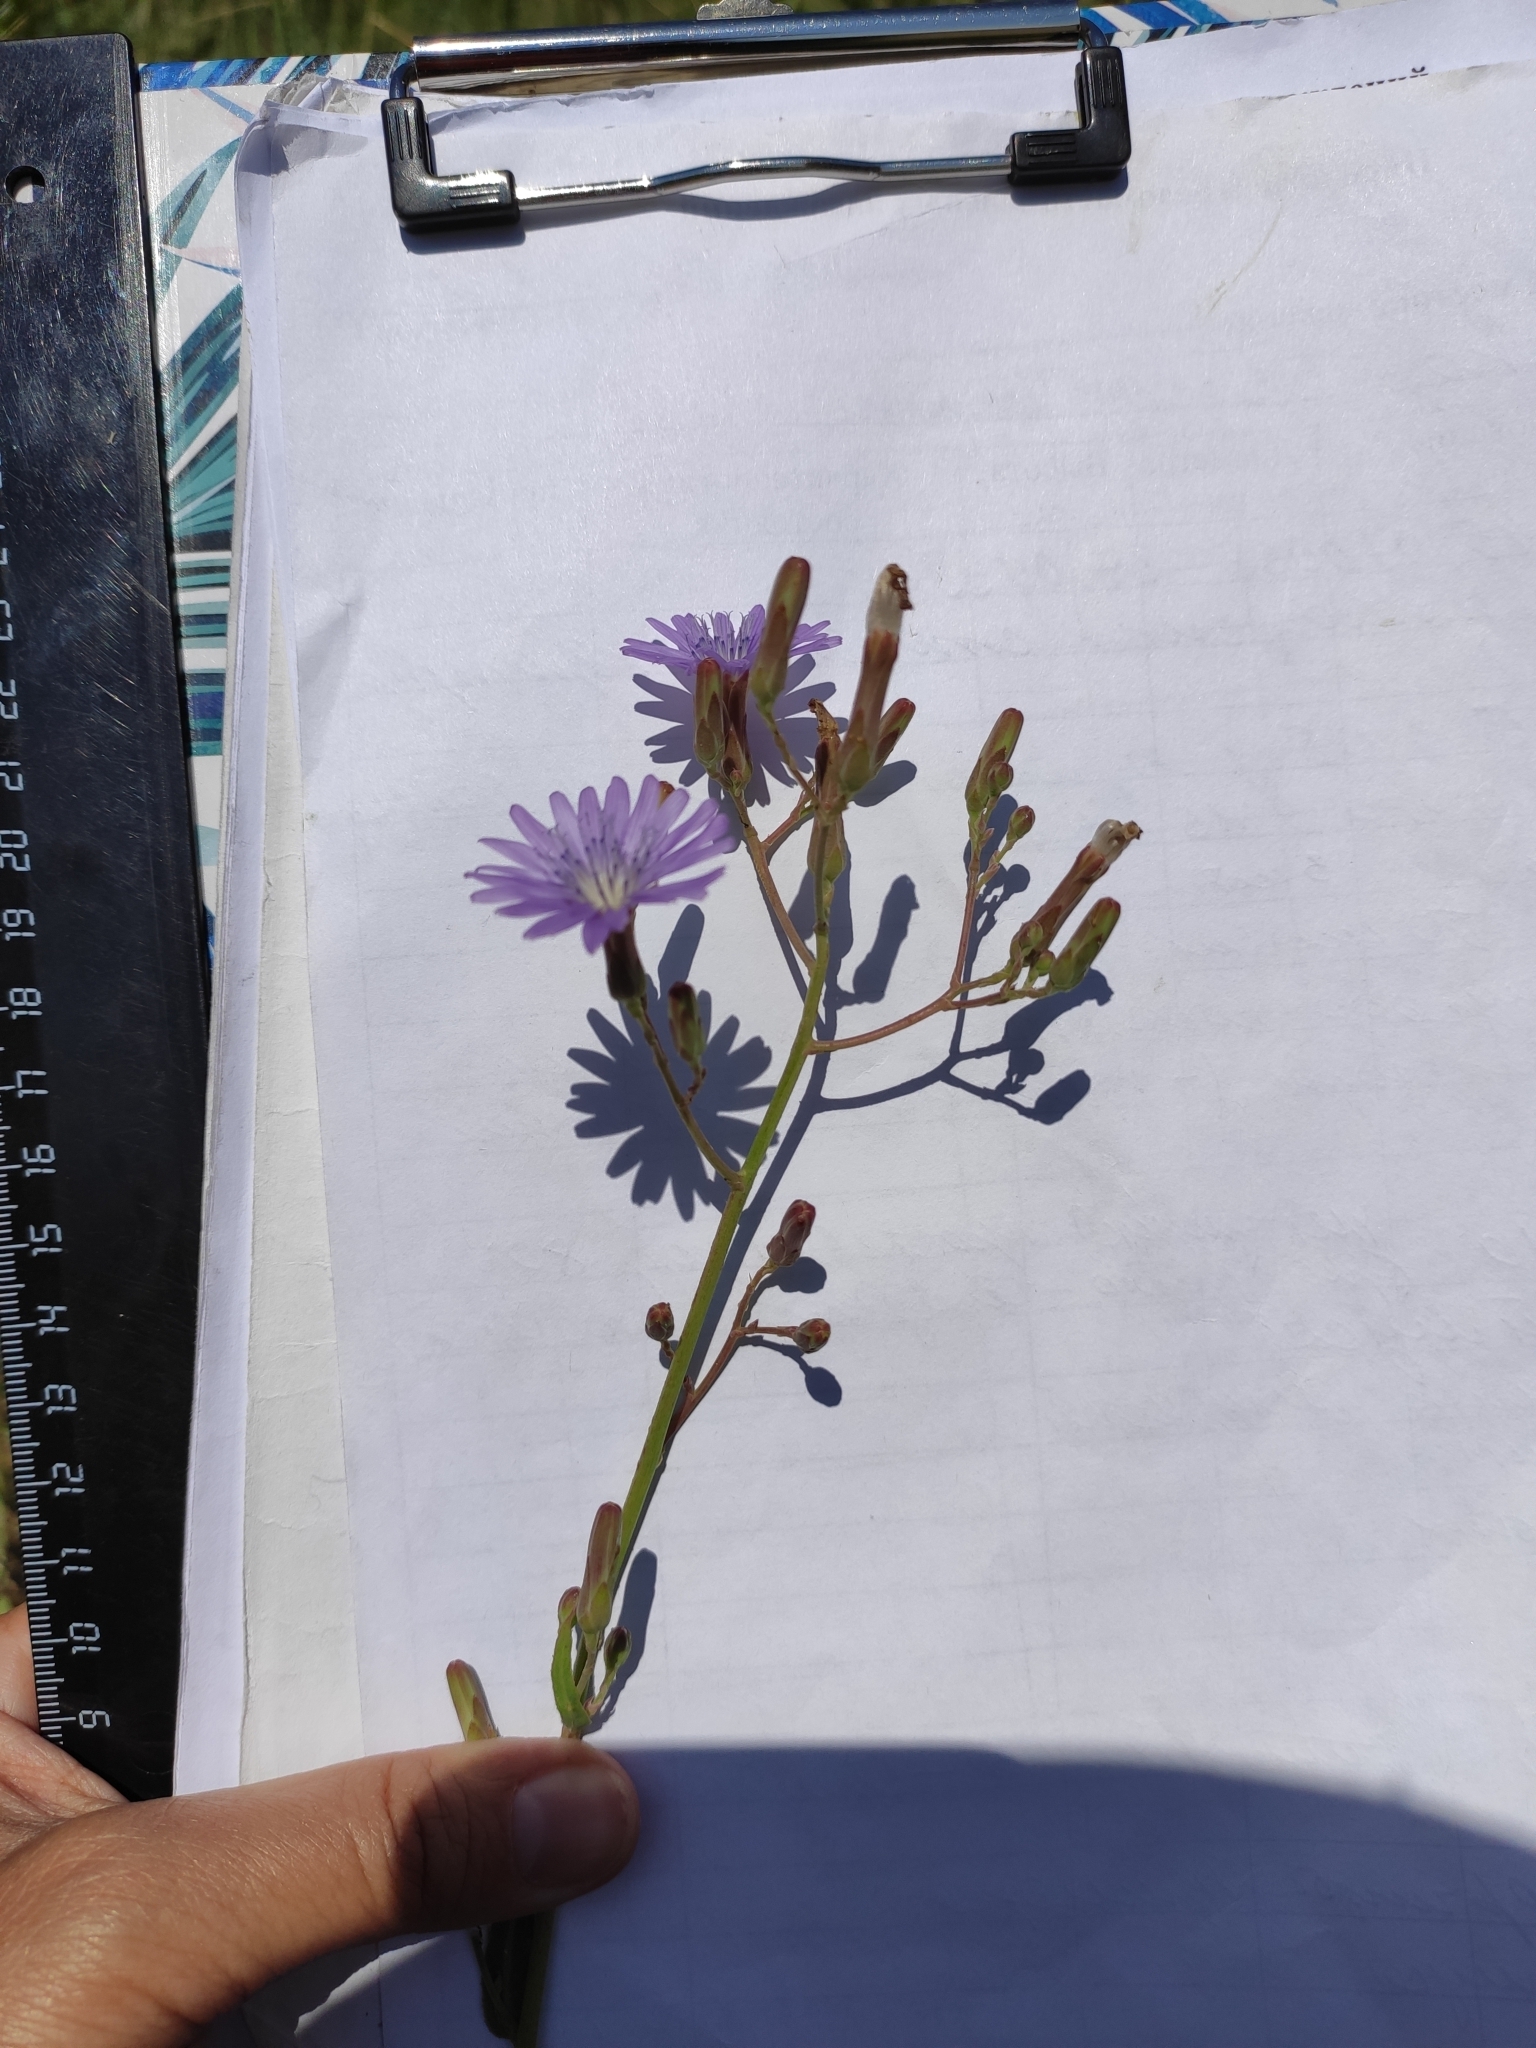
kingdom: Plantae
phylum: Tracheophyta
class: Magnoliopsida
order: Asterales
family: Asteraceae
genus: Lactuca
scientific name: Lactuca tatarica
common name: Blue lettuce
